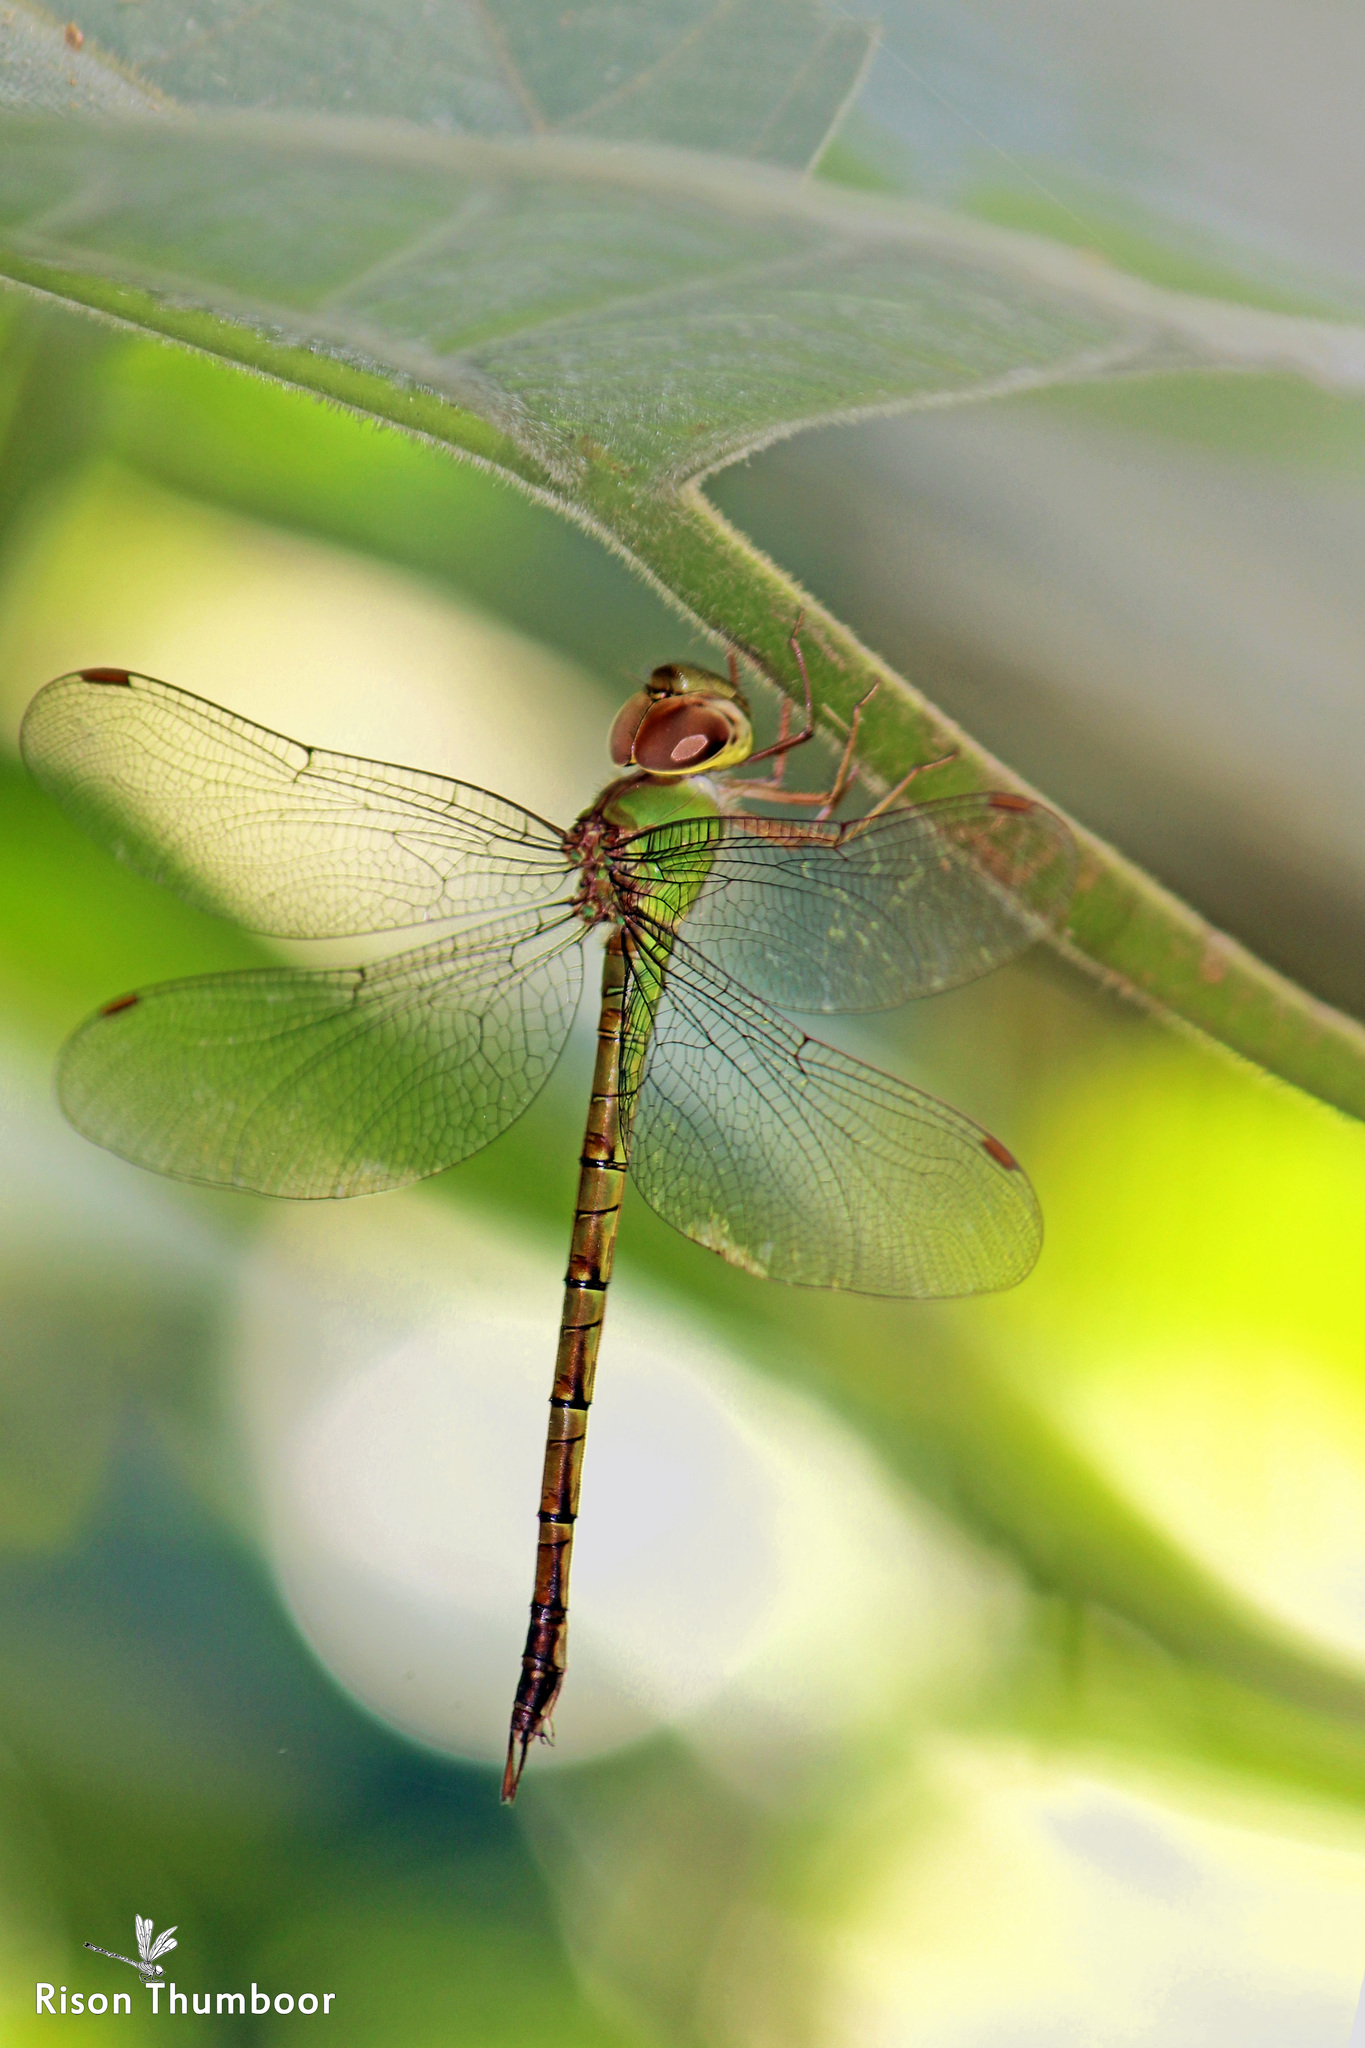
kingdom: Animalia
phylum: Arthropoda
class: Insecta
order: Odonata
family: Aeshnidae
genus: Gynacantha
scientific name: Gynacantha bayadera
